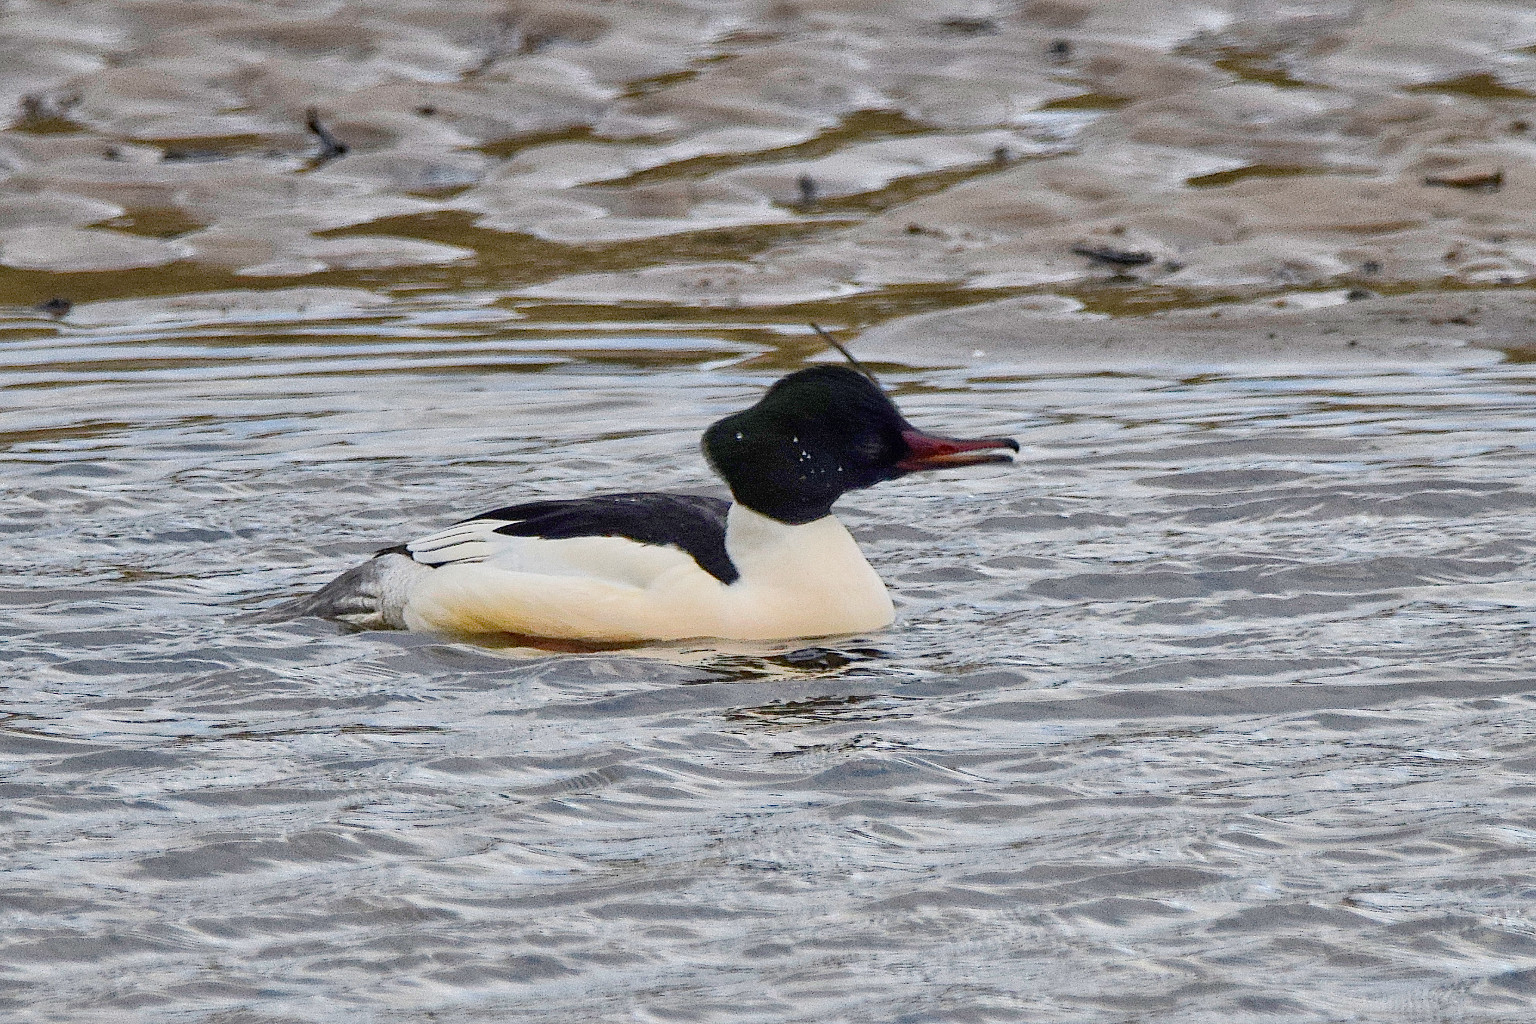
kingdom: Animalia
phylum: Chordata
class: Aves
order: Anseriformes
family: Anatidae
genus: Mergus
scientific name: Mergus merganser
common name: Common merganser
